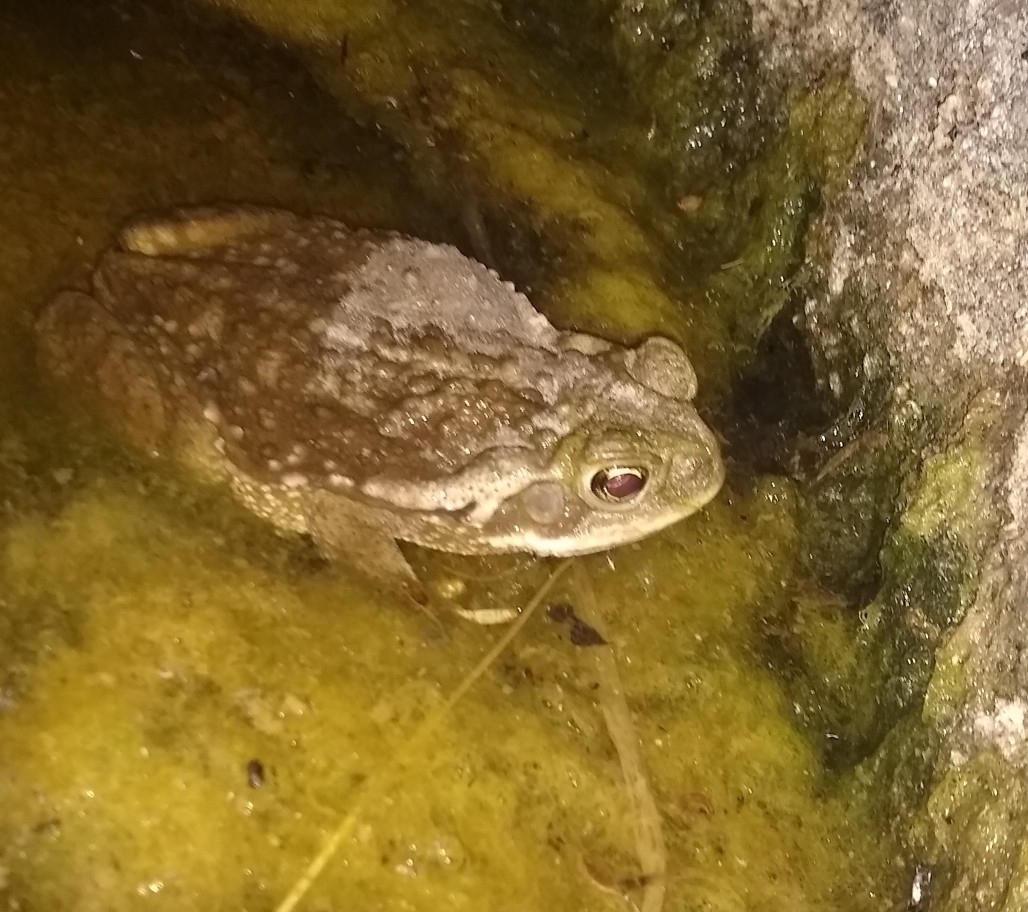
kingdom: Animalia
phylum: Chordata
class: Amphibia
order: Anura
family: Bufonidae
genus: Rhinella
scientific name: Rhinella arenarum
